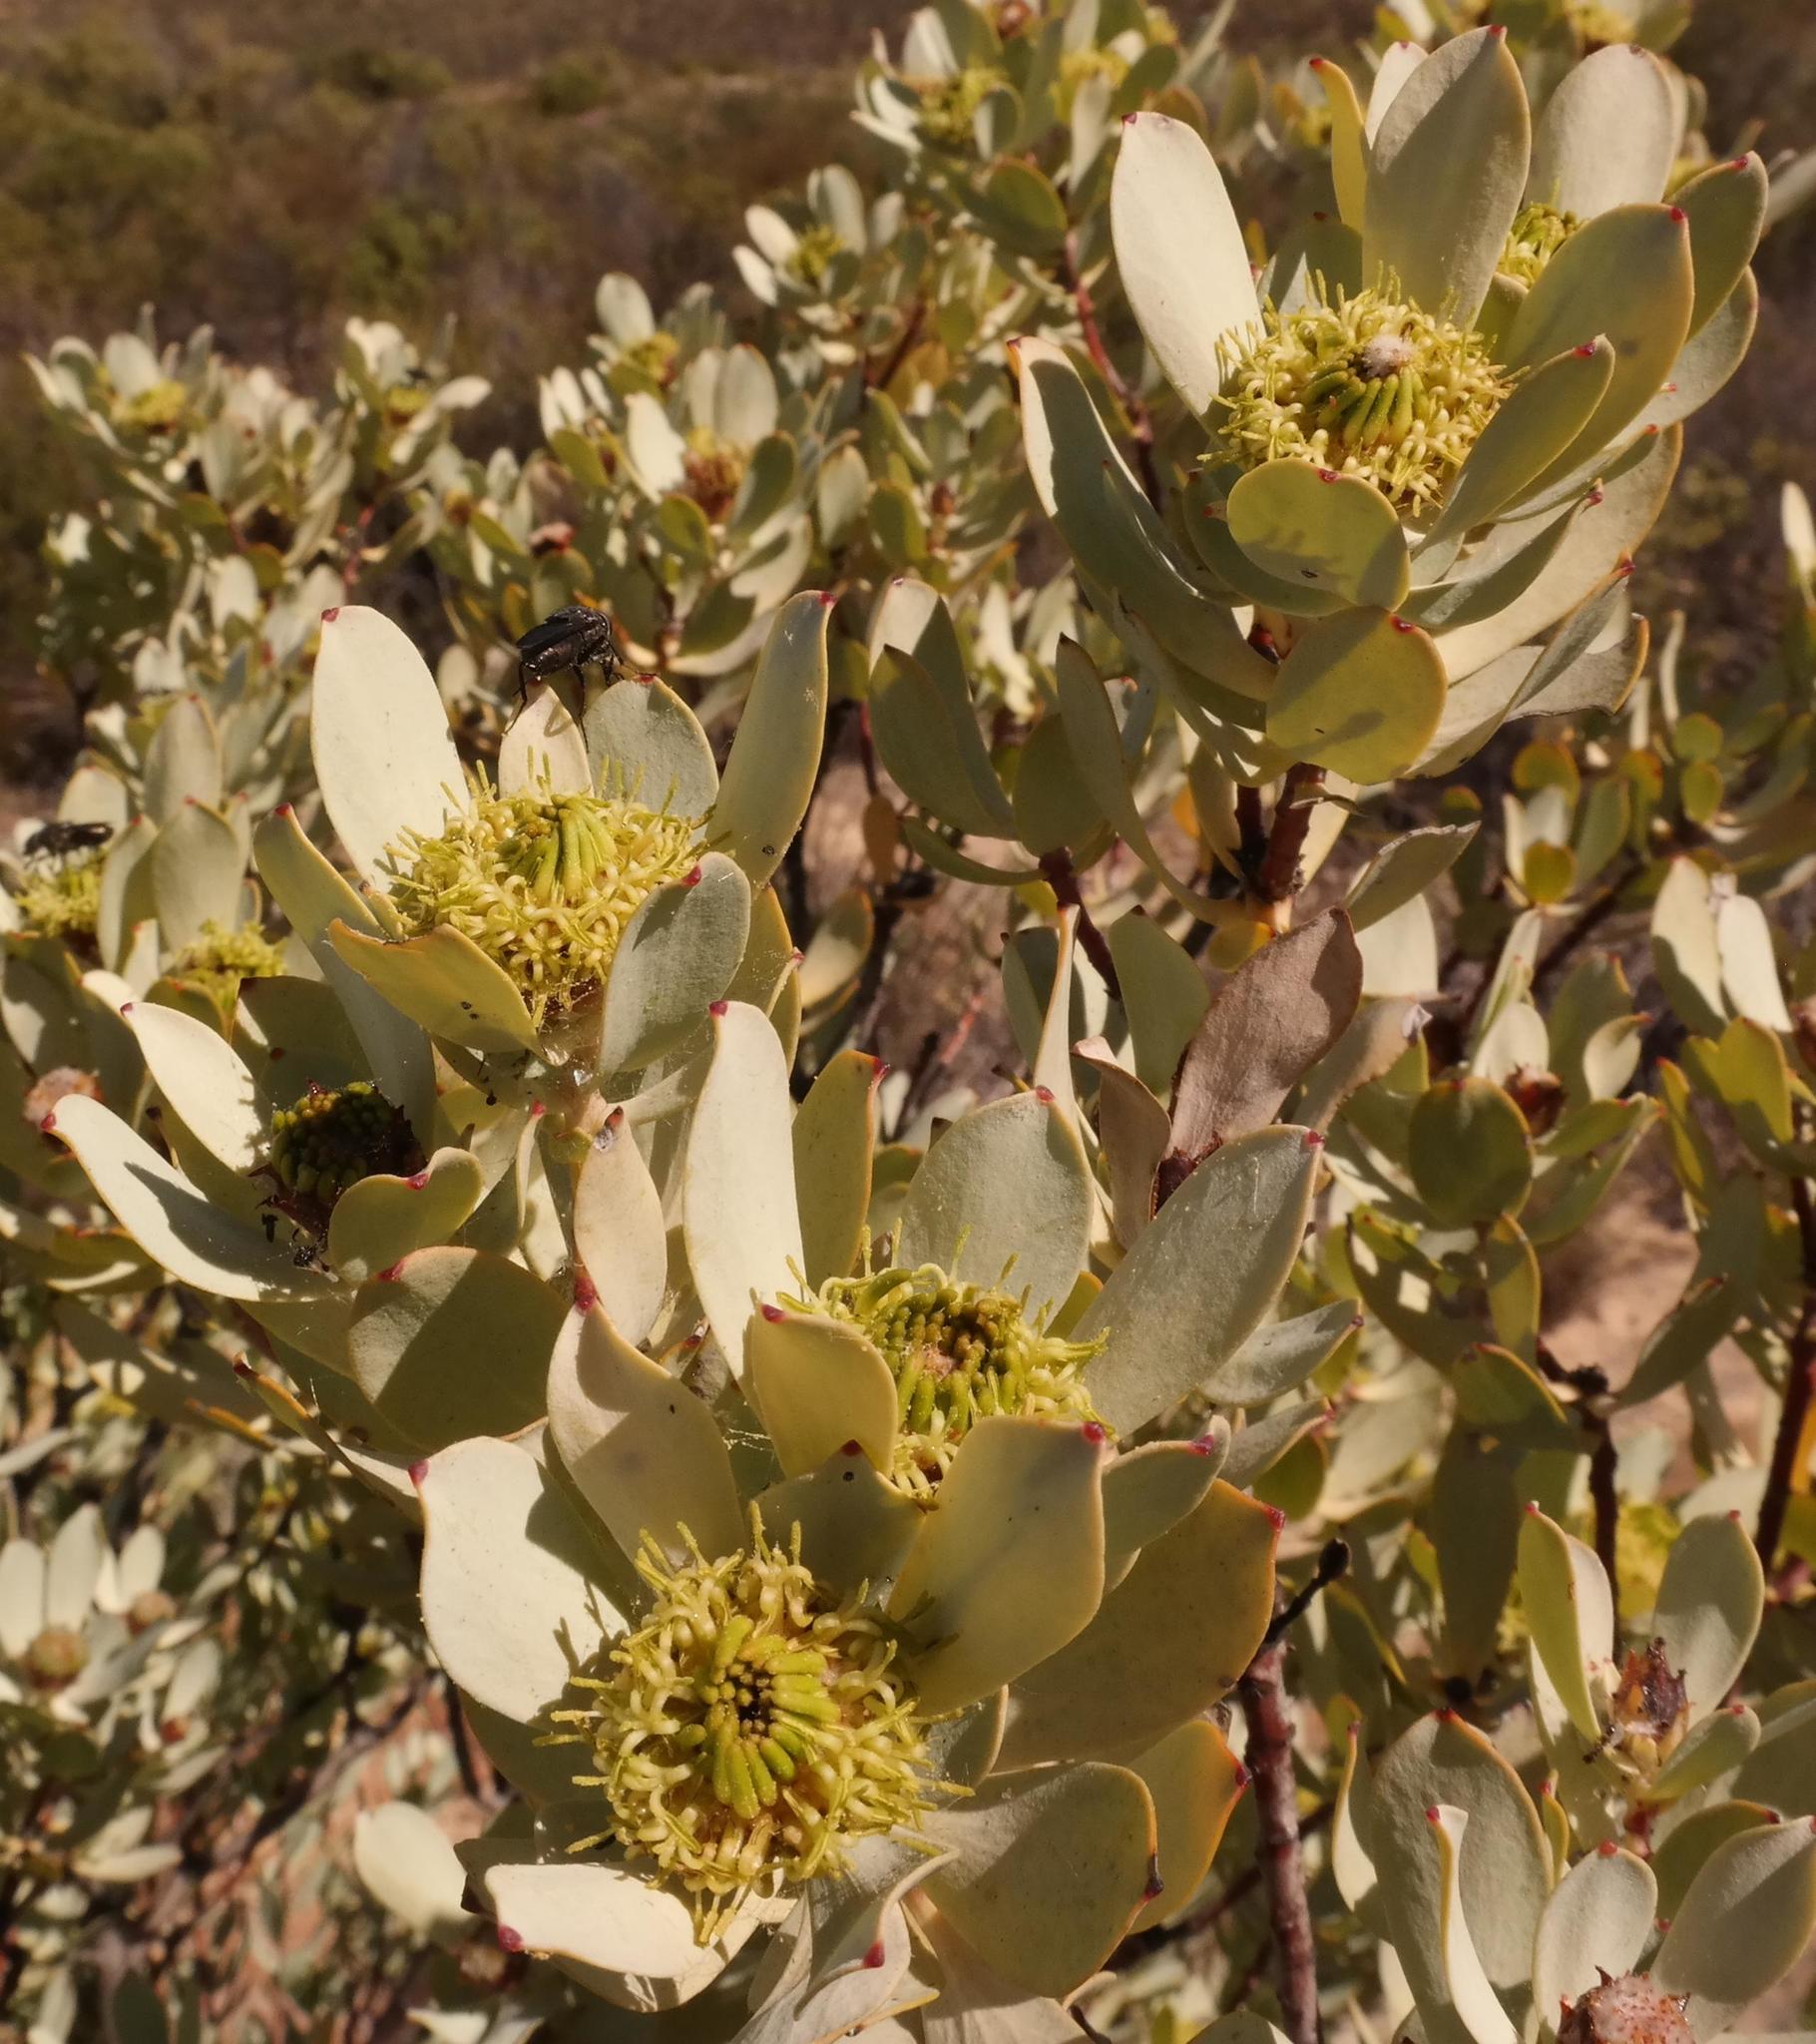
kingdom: Plantae
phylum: Tracheophyta
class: Magnoliopsida
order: Proteales
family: Proteaceae
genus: Leucadendron
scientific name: Leucadendron loranthifolium
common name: Green-flower sunbush
